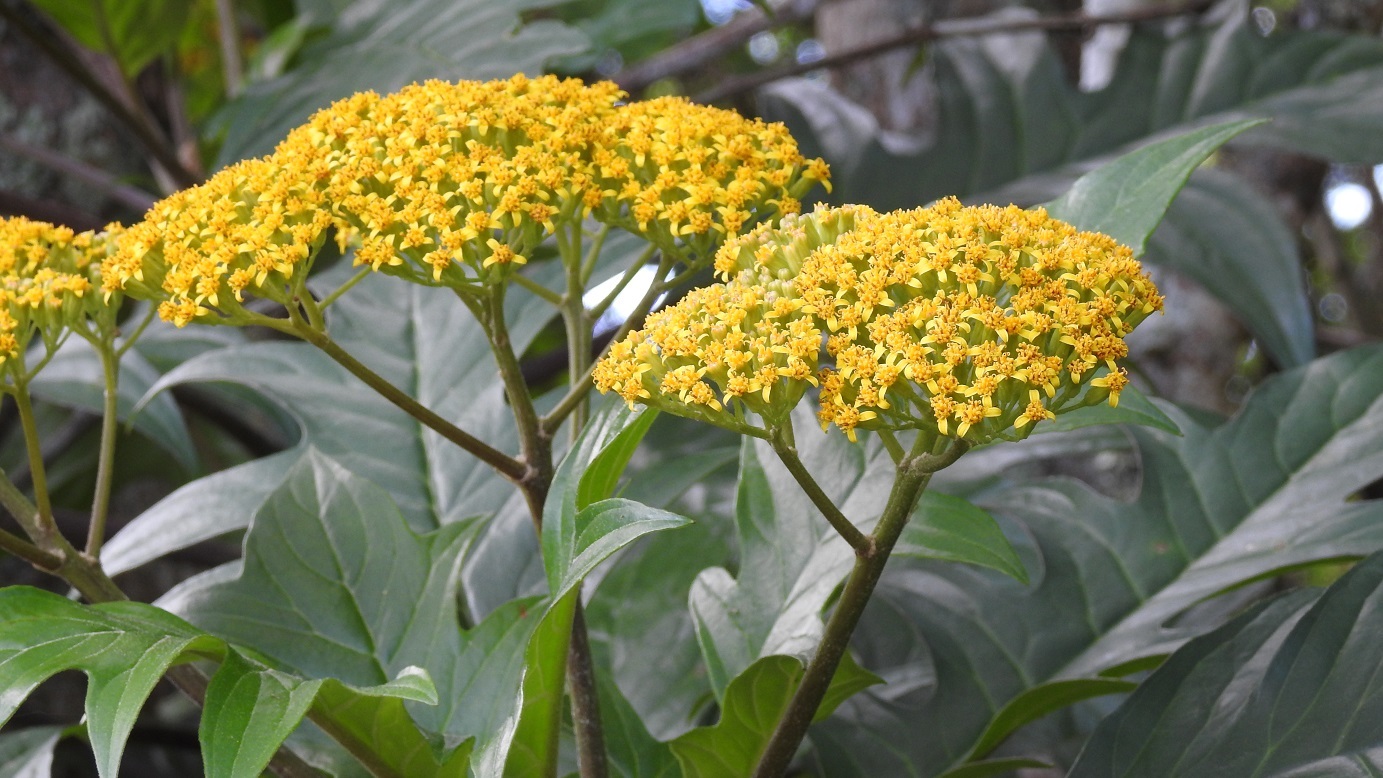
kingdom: Plantae
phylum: Tracheophyta
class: Magnoliopsida
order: Asterales
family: Asteraceae
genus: Telanthophora
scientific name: Telanthophora grandifolia
